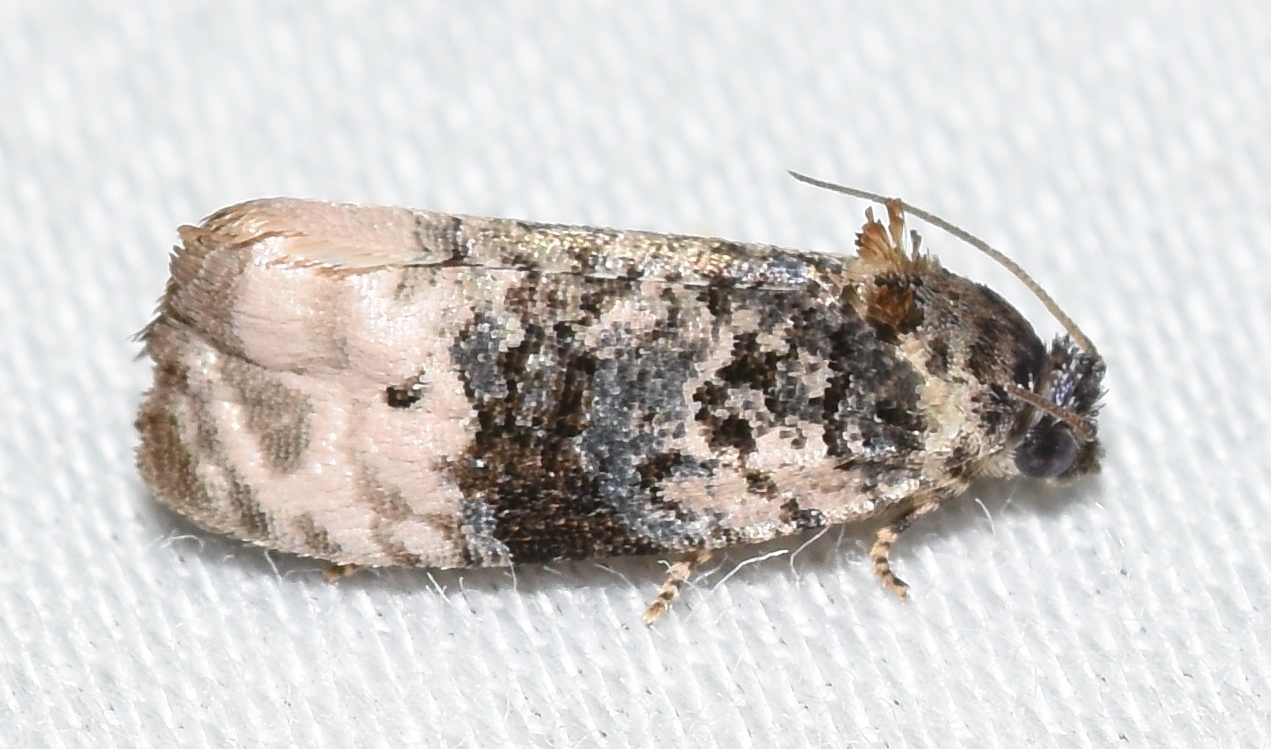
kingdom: Animalia
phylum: Arthropoda
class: Insecta
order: Lepidoptera
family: Tortricidae
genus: Hedya
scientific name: Hedya separatana
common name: Pink-washed leafroller moth
